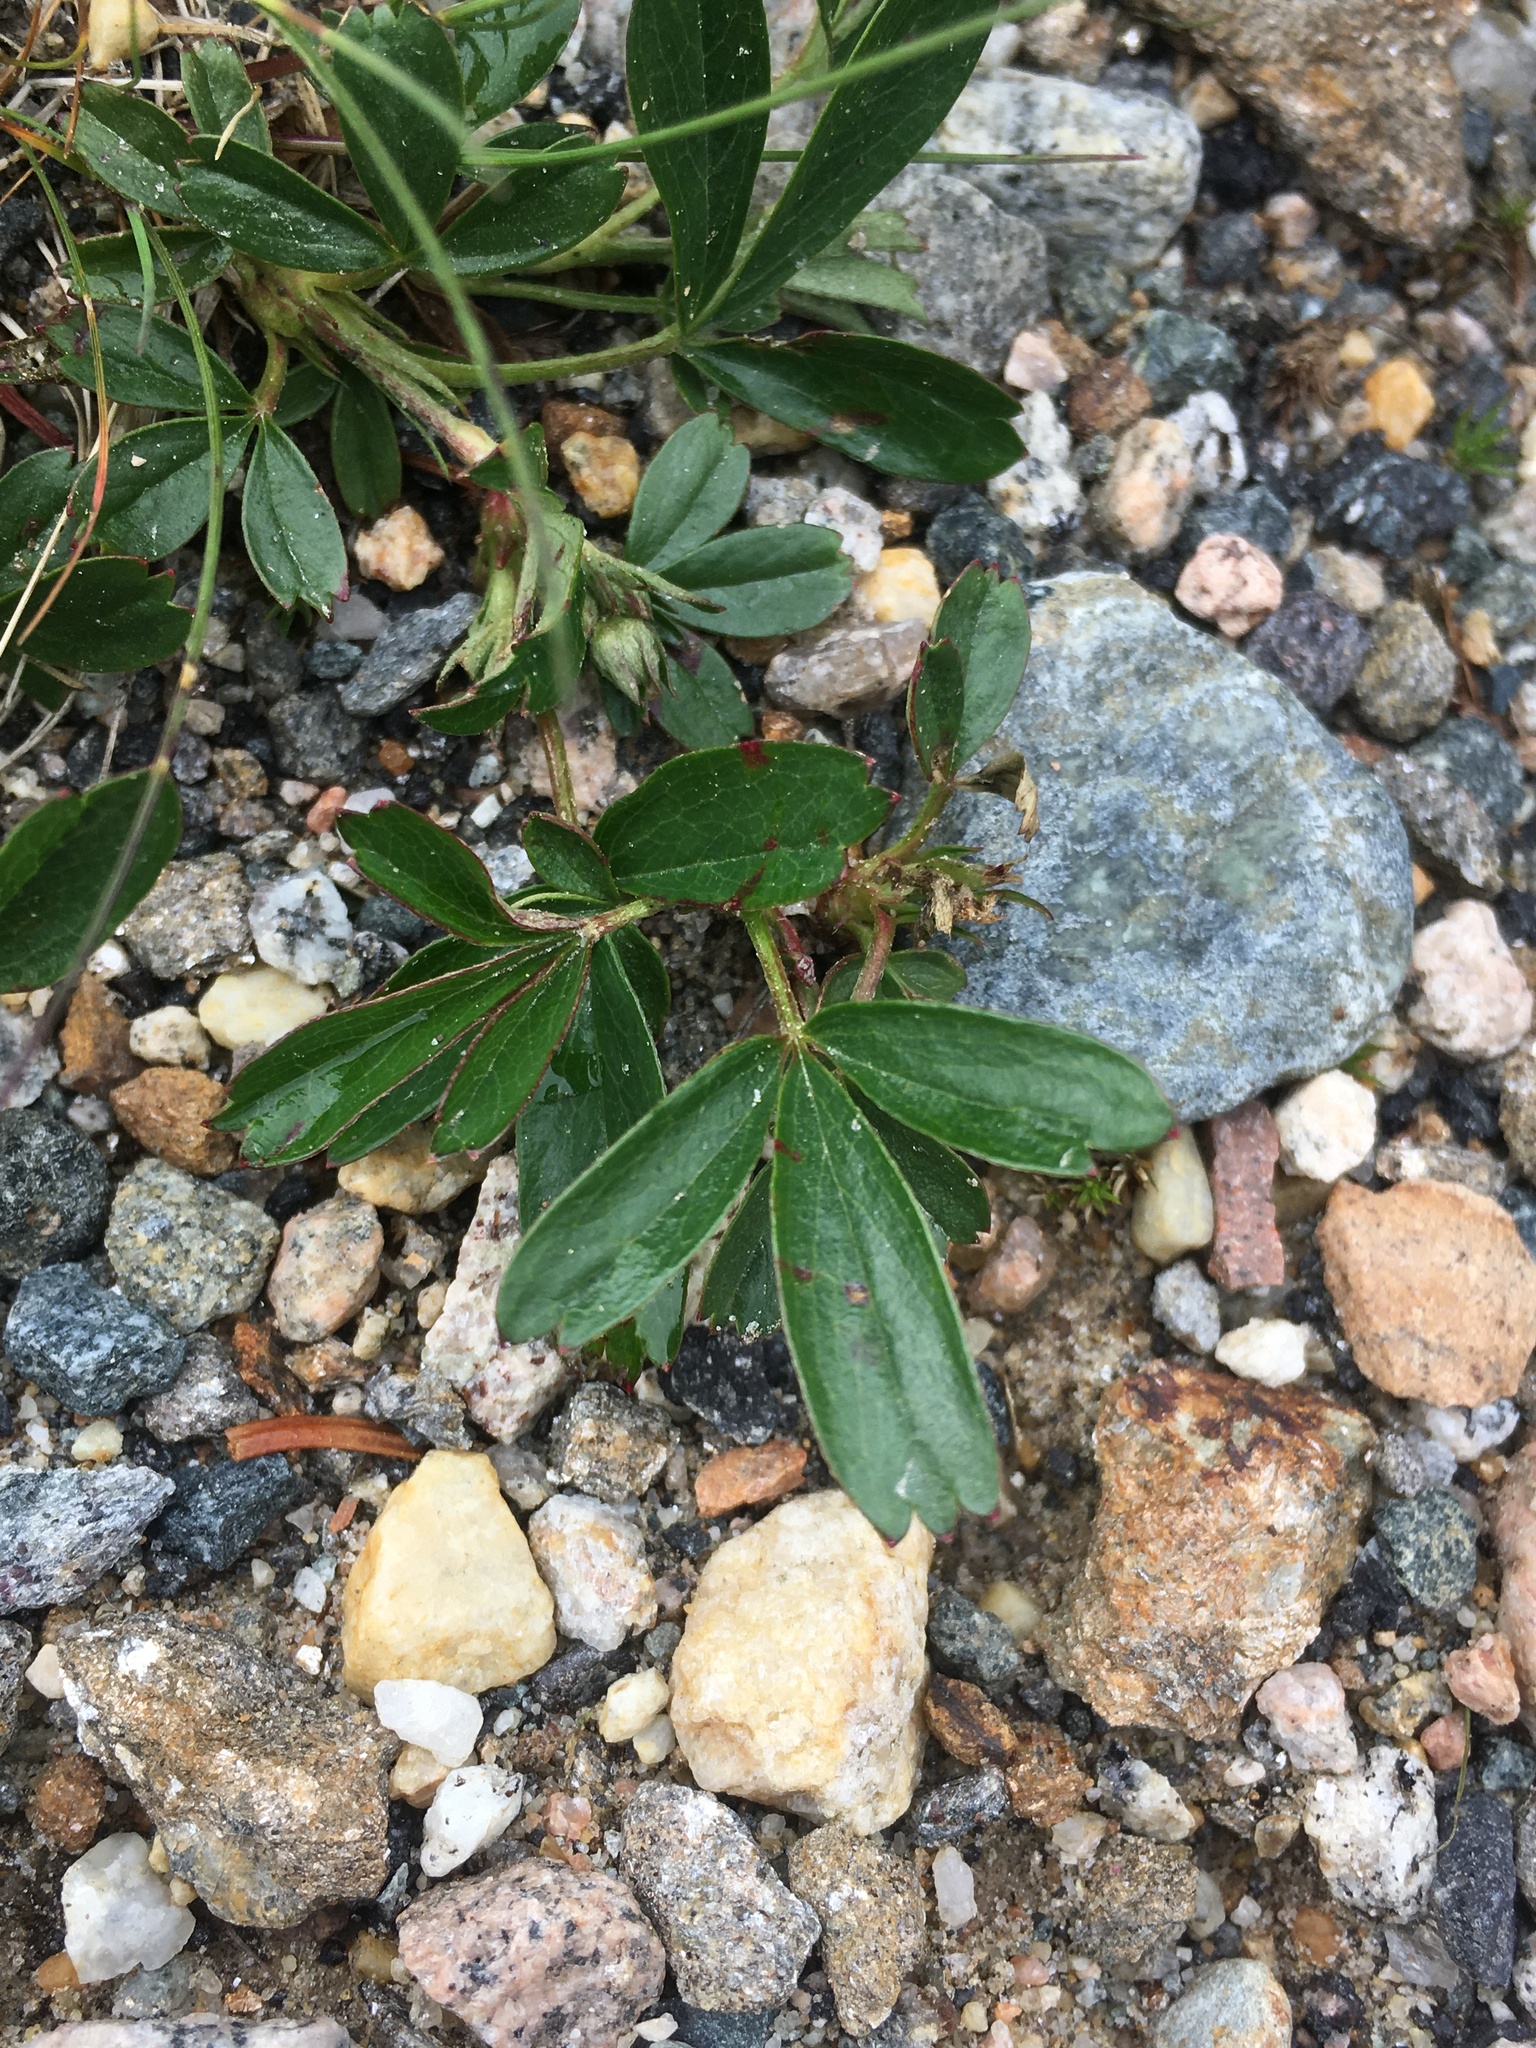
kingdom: Plantae
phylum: Tracheophyta
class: Magnoliopsida
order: Rosales
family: Rosaceae
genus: Sibbaldia
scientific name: Sibbaldia tridentata
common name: Three-toothed cinquefoil
